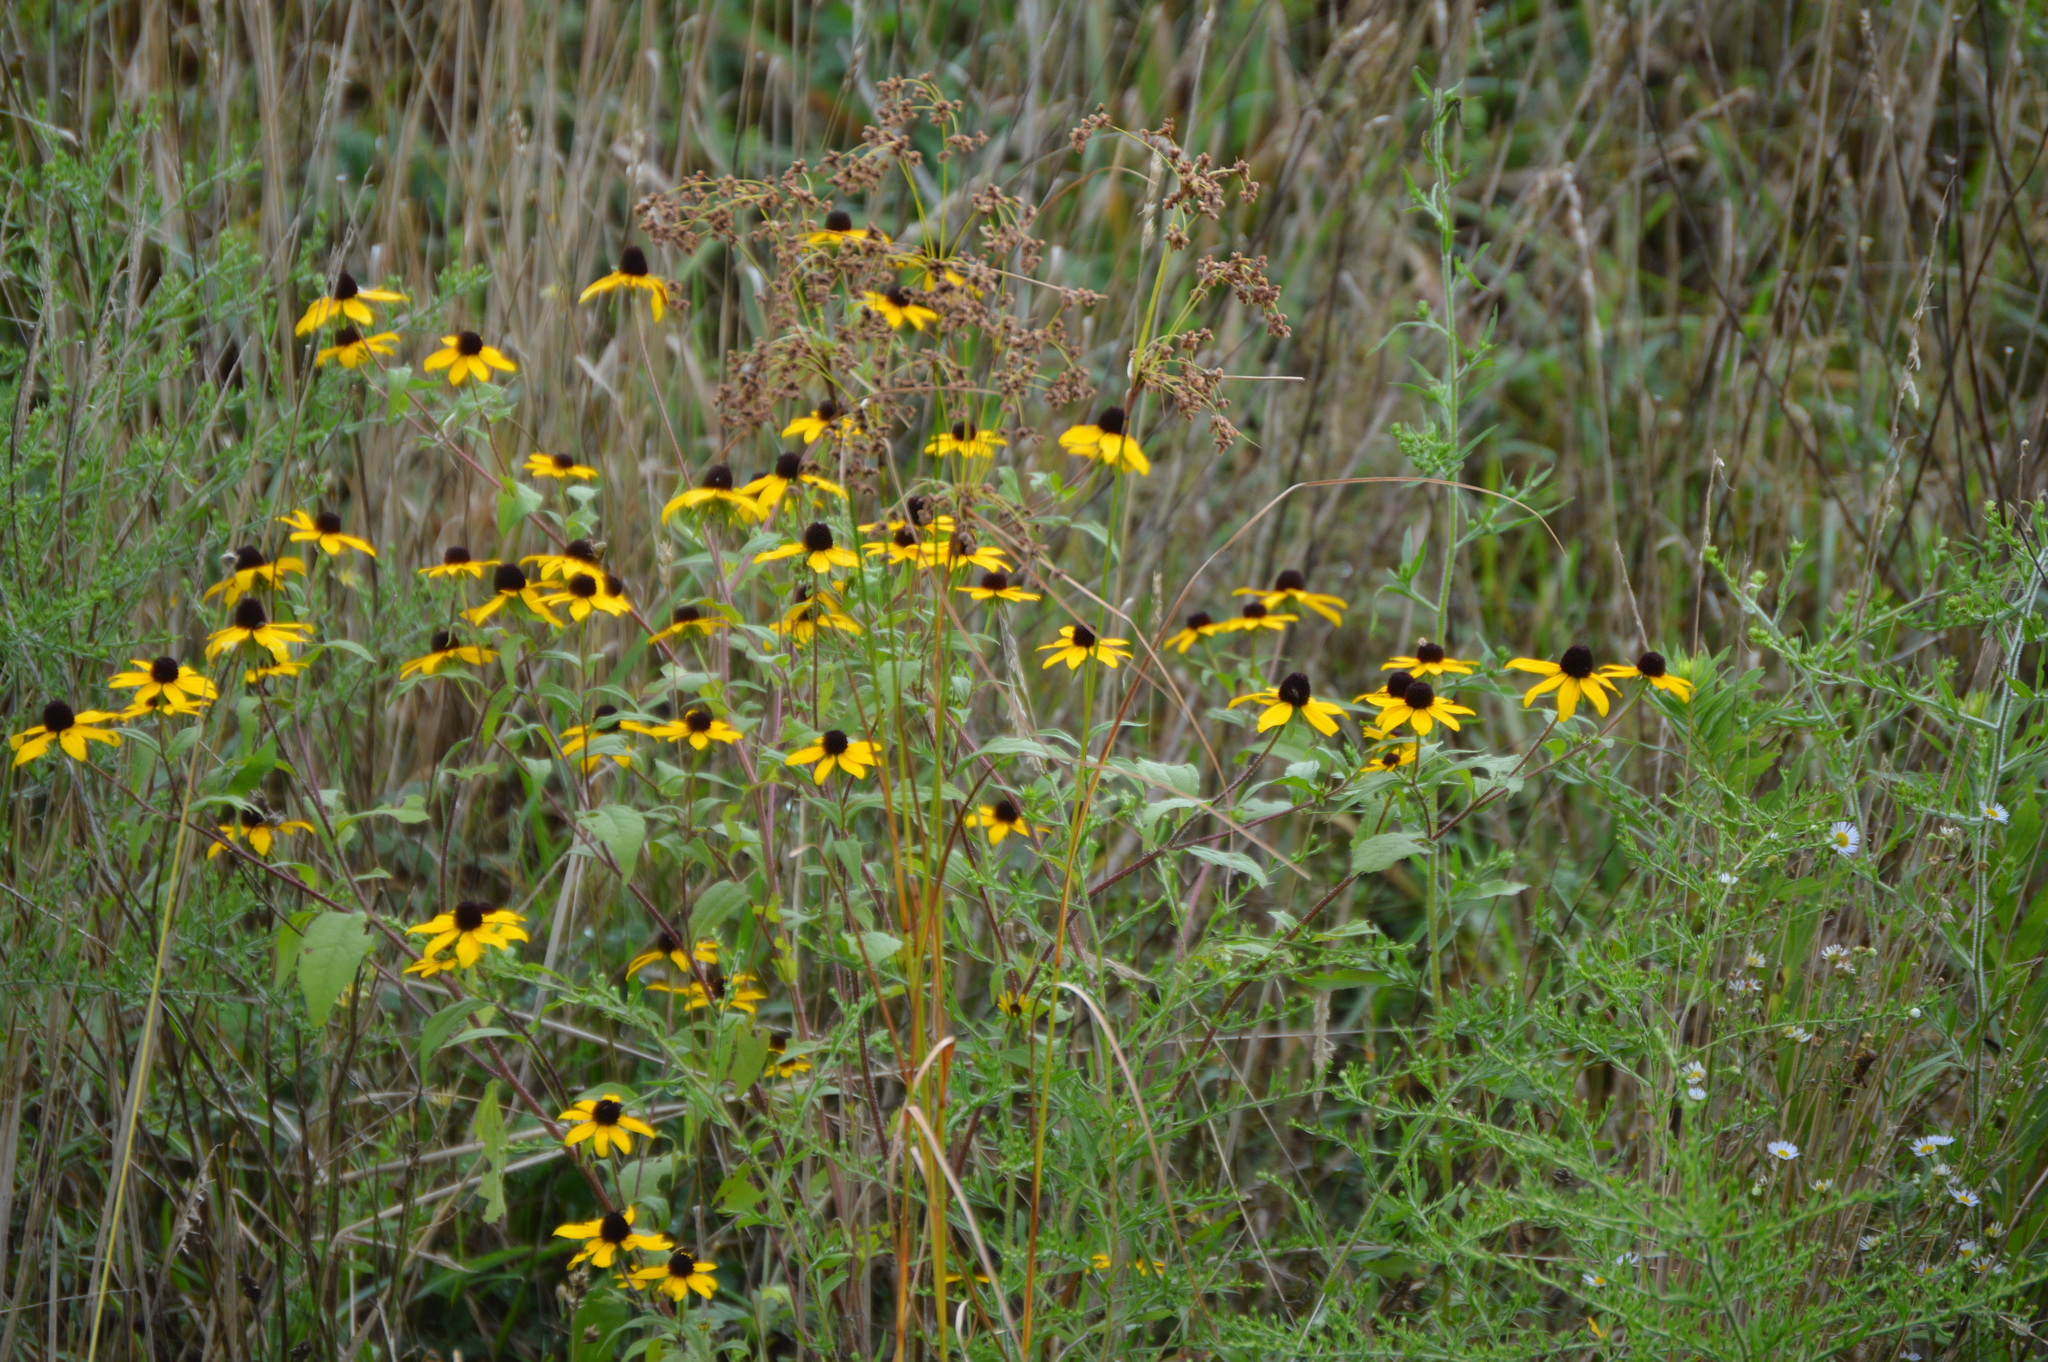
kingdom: Plantae
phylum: Tracheophyta
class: Magnoliopsida
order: Asterales
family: Asteraceae
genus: Rudbeckia
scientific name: Rudbeckia triloba
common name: Thin-leaved coneflower
